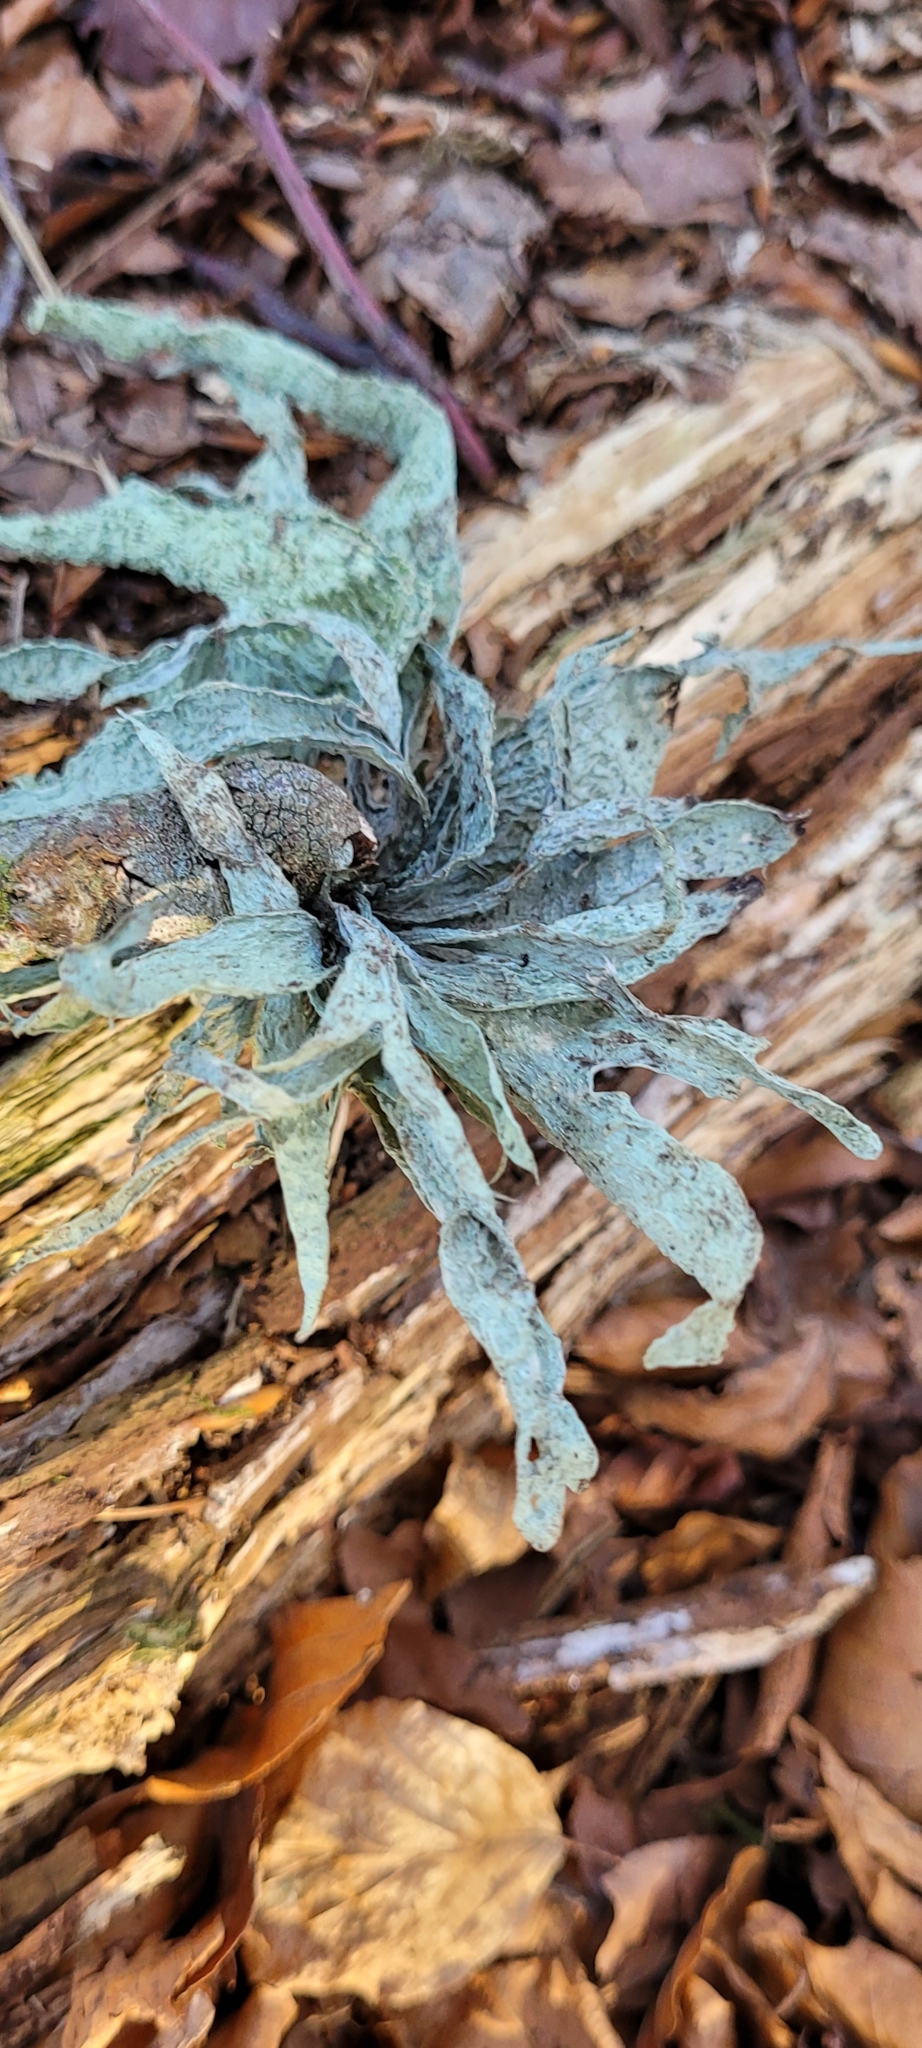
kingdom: Fungi
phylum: Ascomycota
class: Lecanoromycetes
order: Lecanorales
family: Ramalinaceae
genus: Ramalina
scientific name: Ramalina fraxinea
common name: Cartilage lichen
